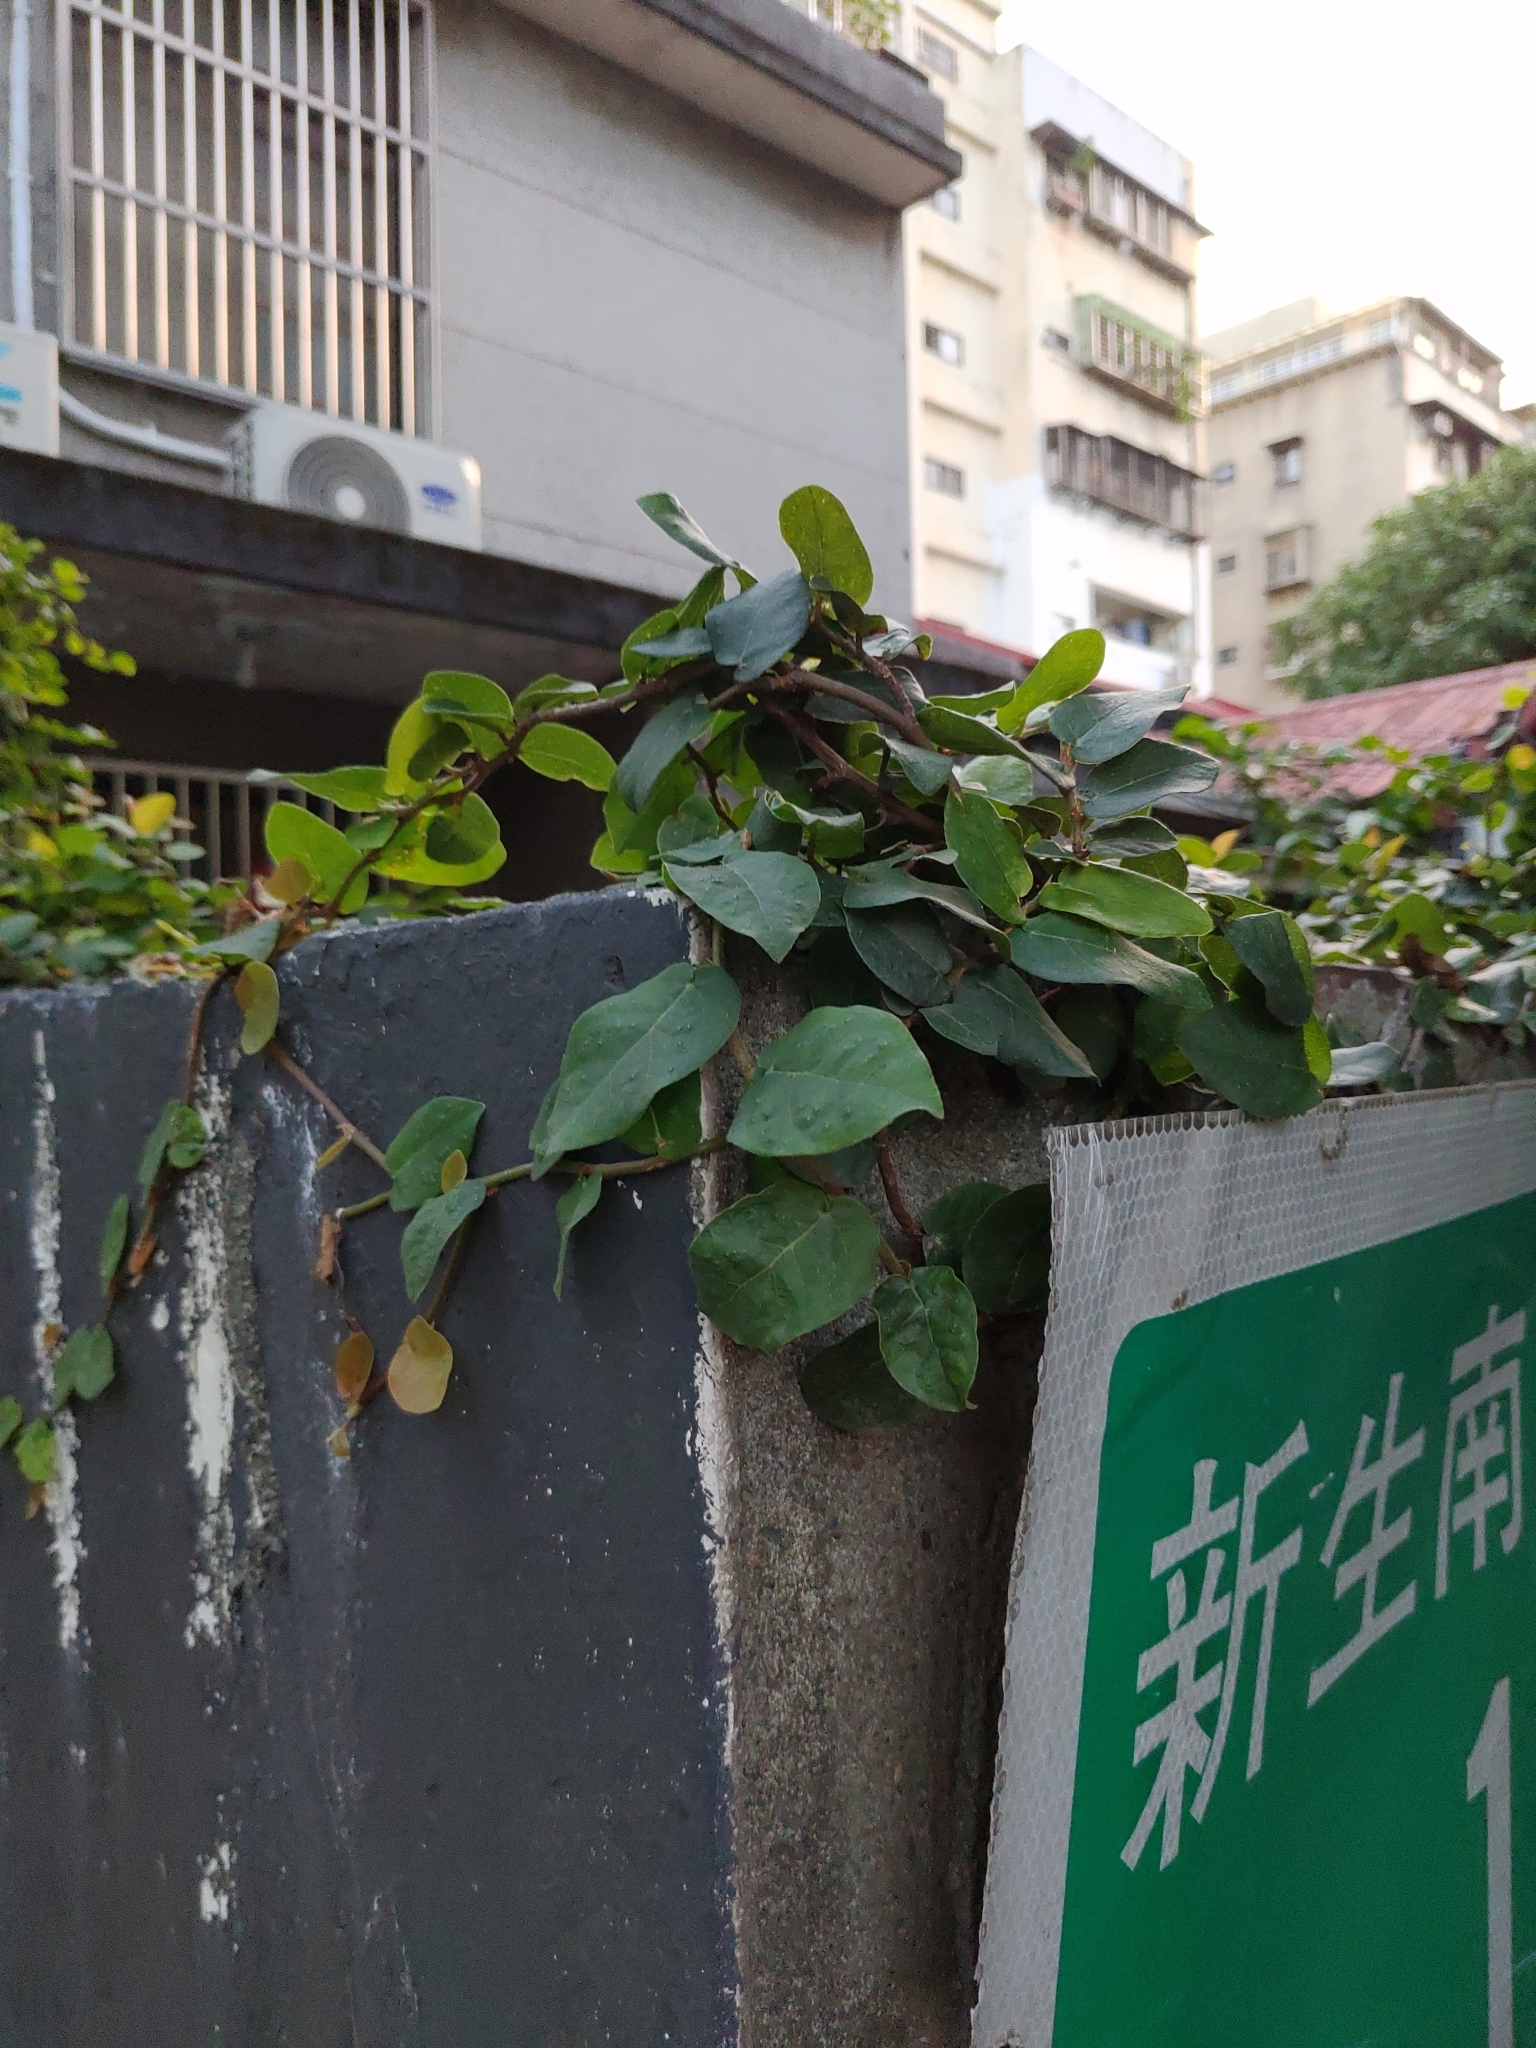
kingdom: Plantae
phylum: Tracheophyta
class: Magnoliopsida
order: Rosales
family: Moraceae
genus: Ficus
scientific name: Ficus pumila
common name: Climbingfig
